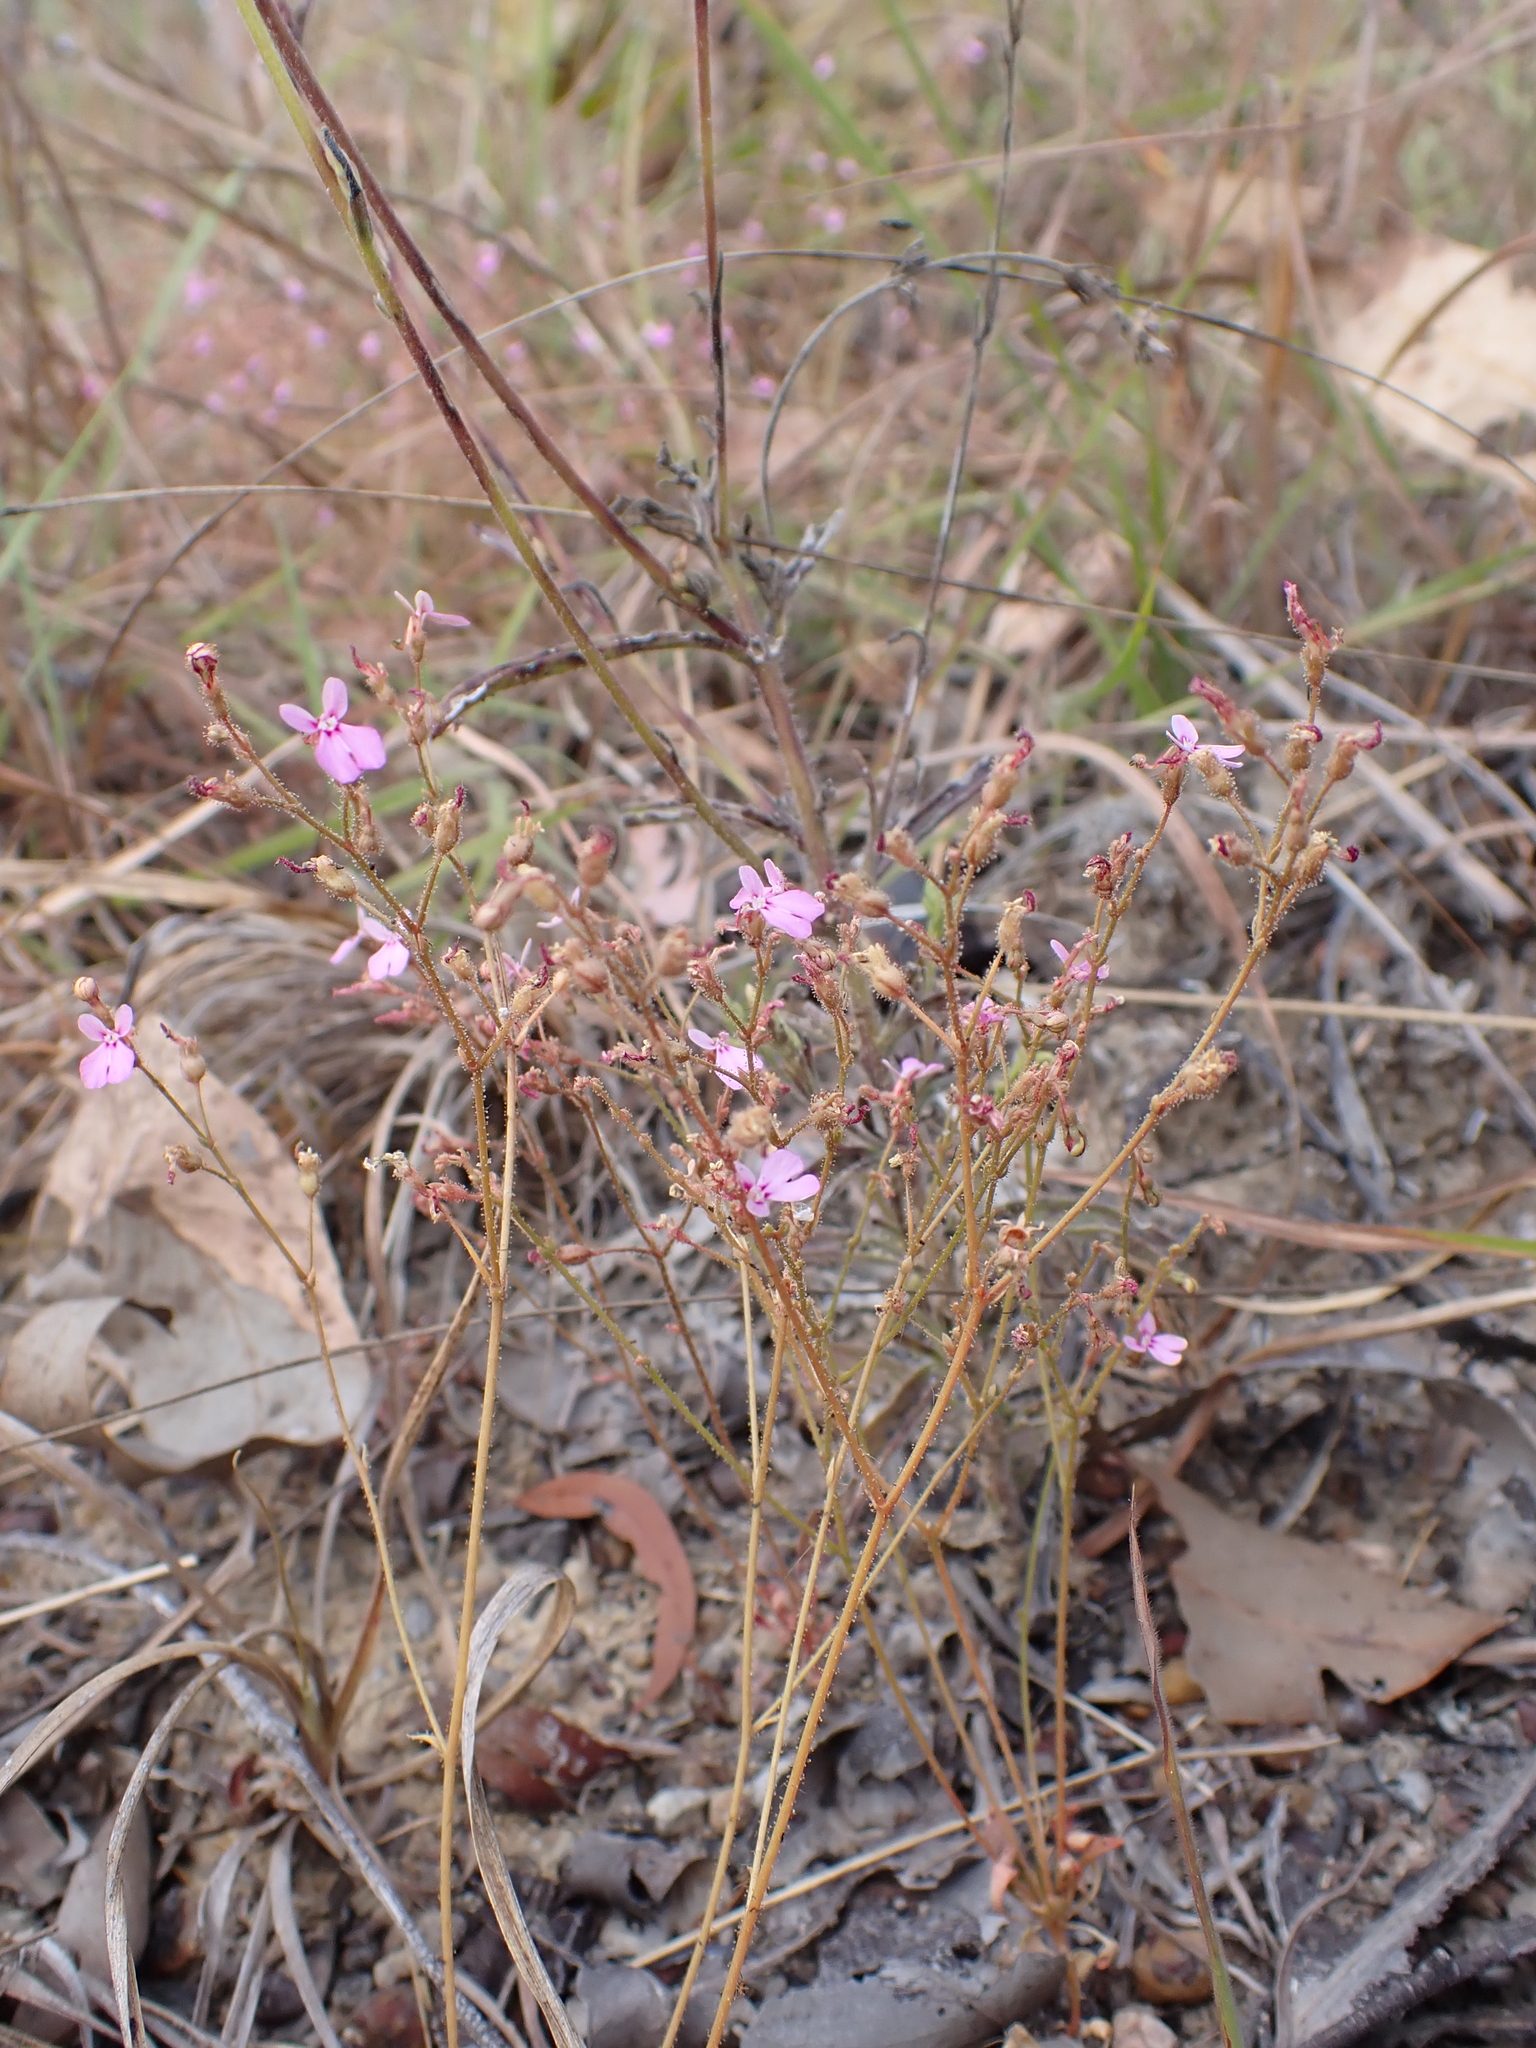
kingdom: Plantae
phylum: Tracheophyta
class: Magnoliopsida
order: Asterales
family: Stylidiaceae
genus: Stylidium
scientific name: Stylidium semipartitum
